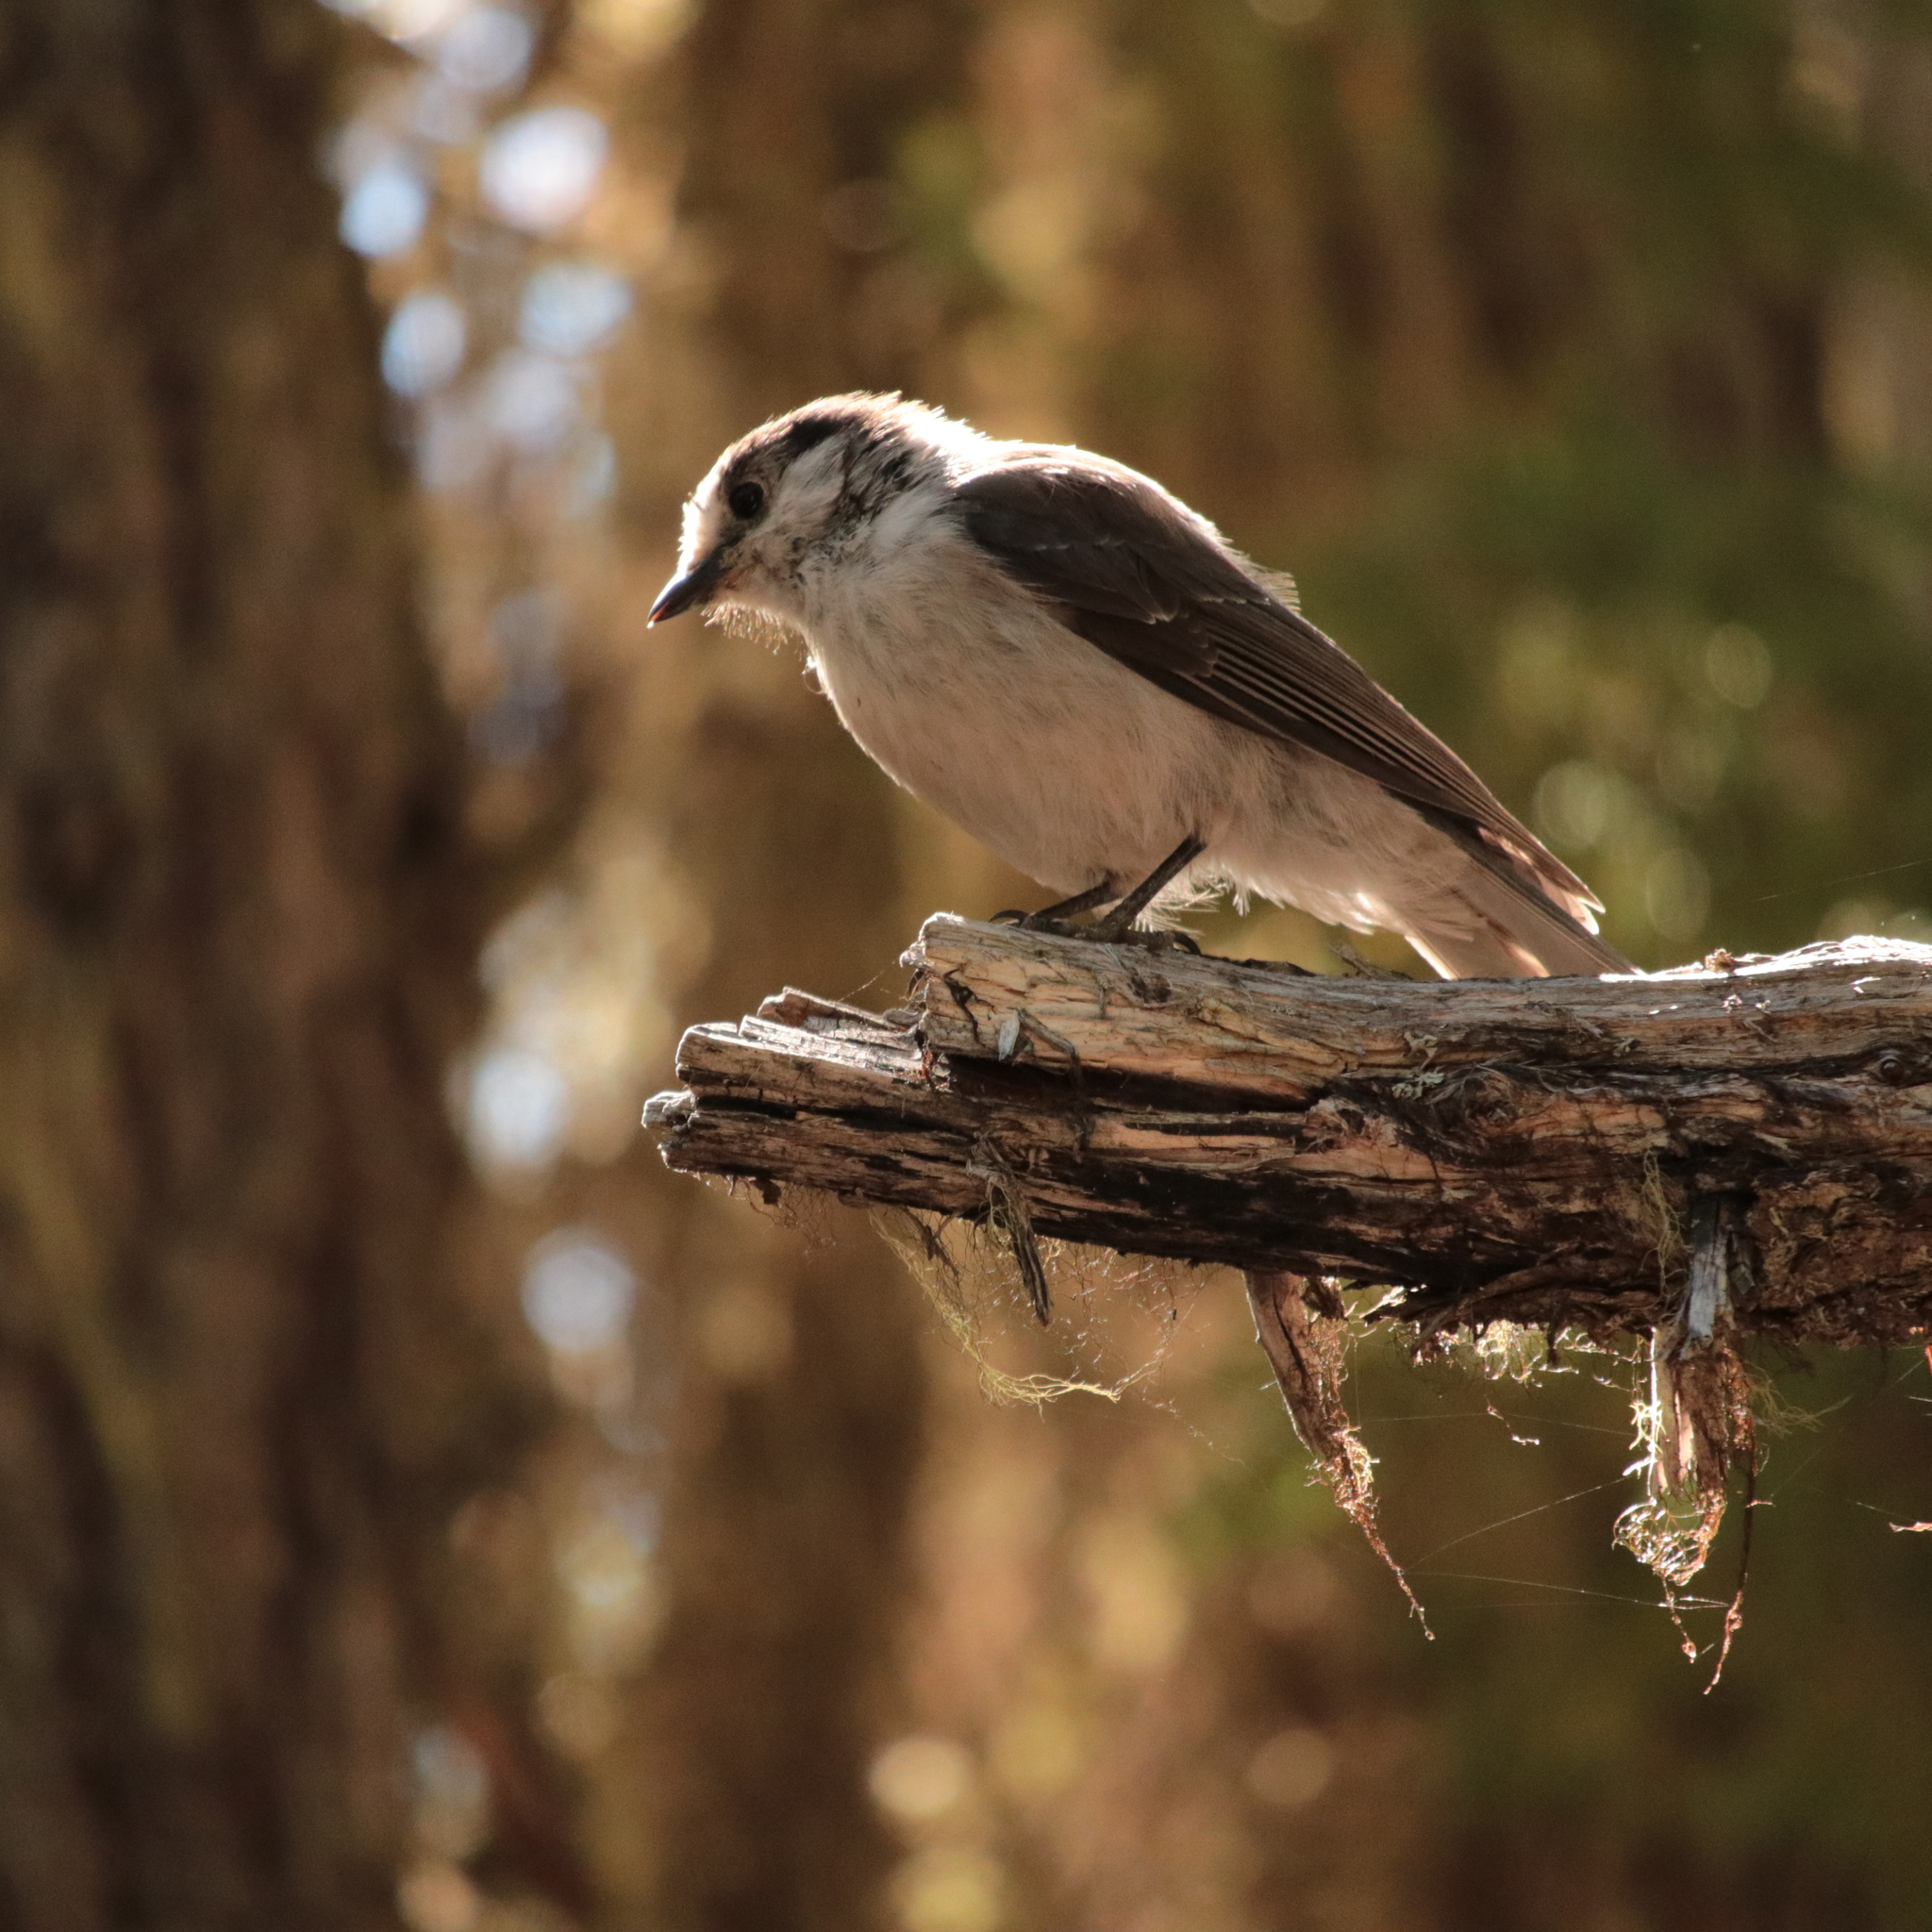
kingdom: Animalia
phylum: Chordata
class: Aves
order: Passeriformes
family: Corvidae
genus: Perisoreus
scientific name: Perisoreus canadensis
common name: Gray jay
